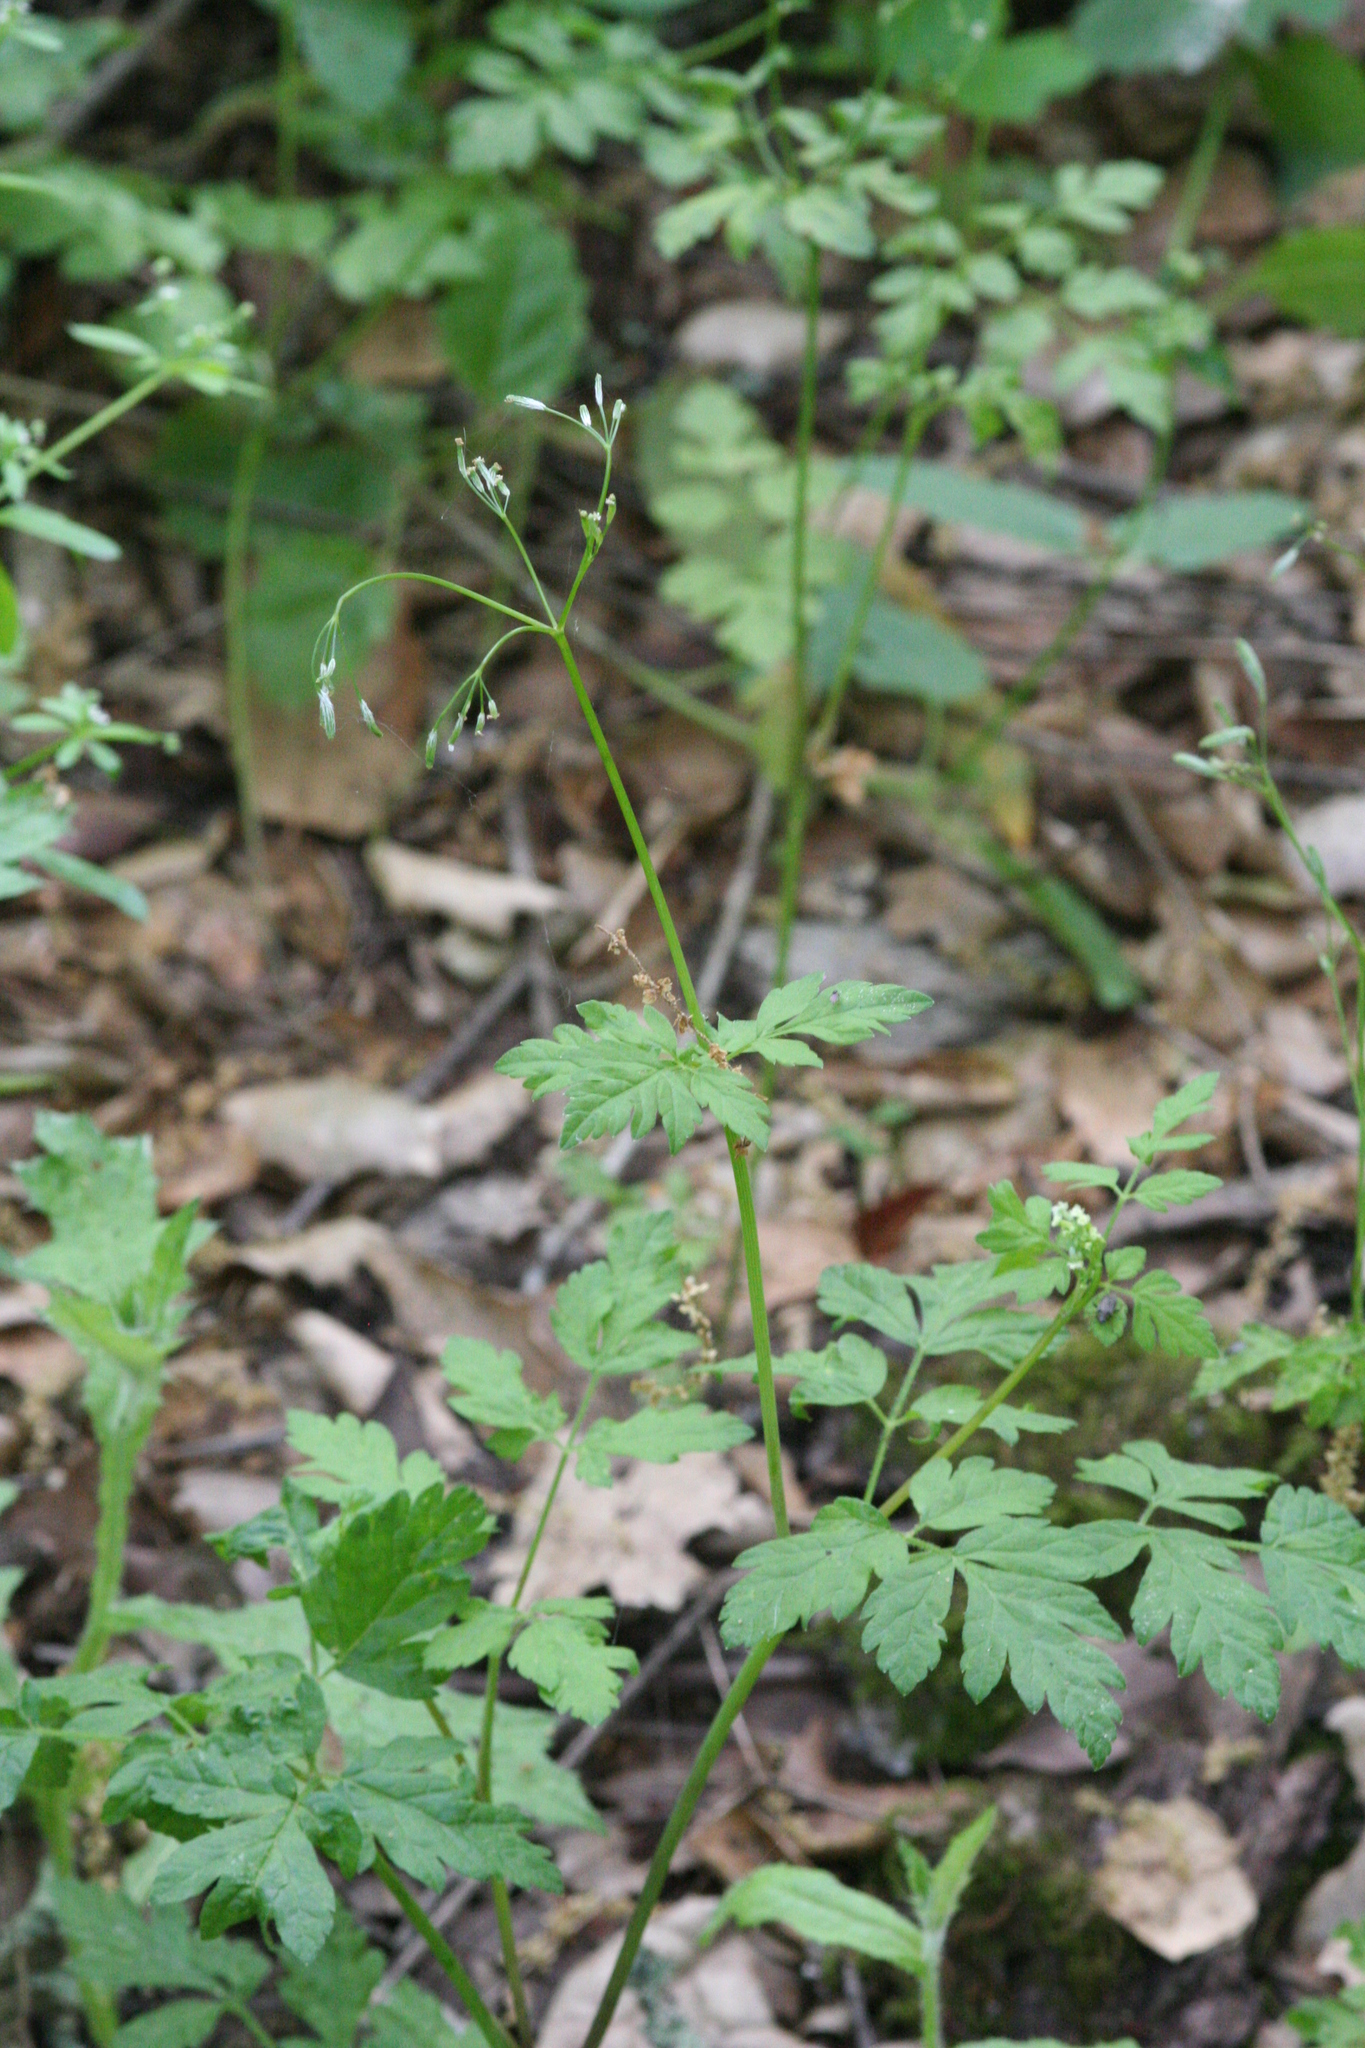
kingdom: Plantae
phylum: Tracheophyta
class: Magnoliopsida
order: Apiales
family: Apiaceae
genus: Osmorhiza
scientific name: Osmorhiza berteroi
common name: Mountain sweet cicely
